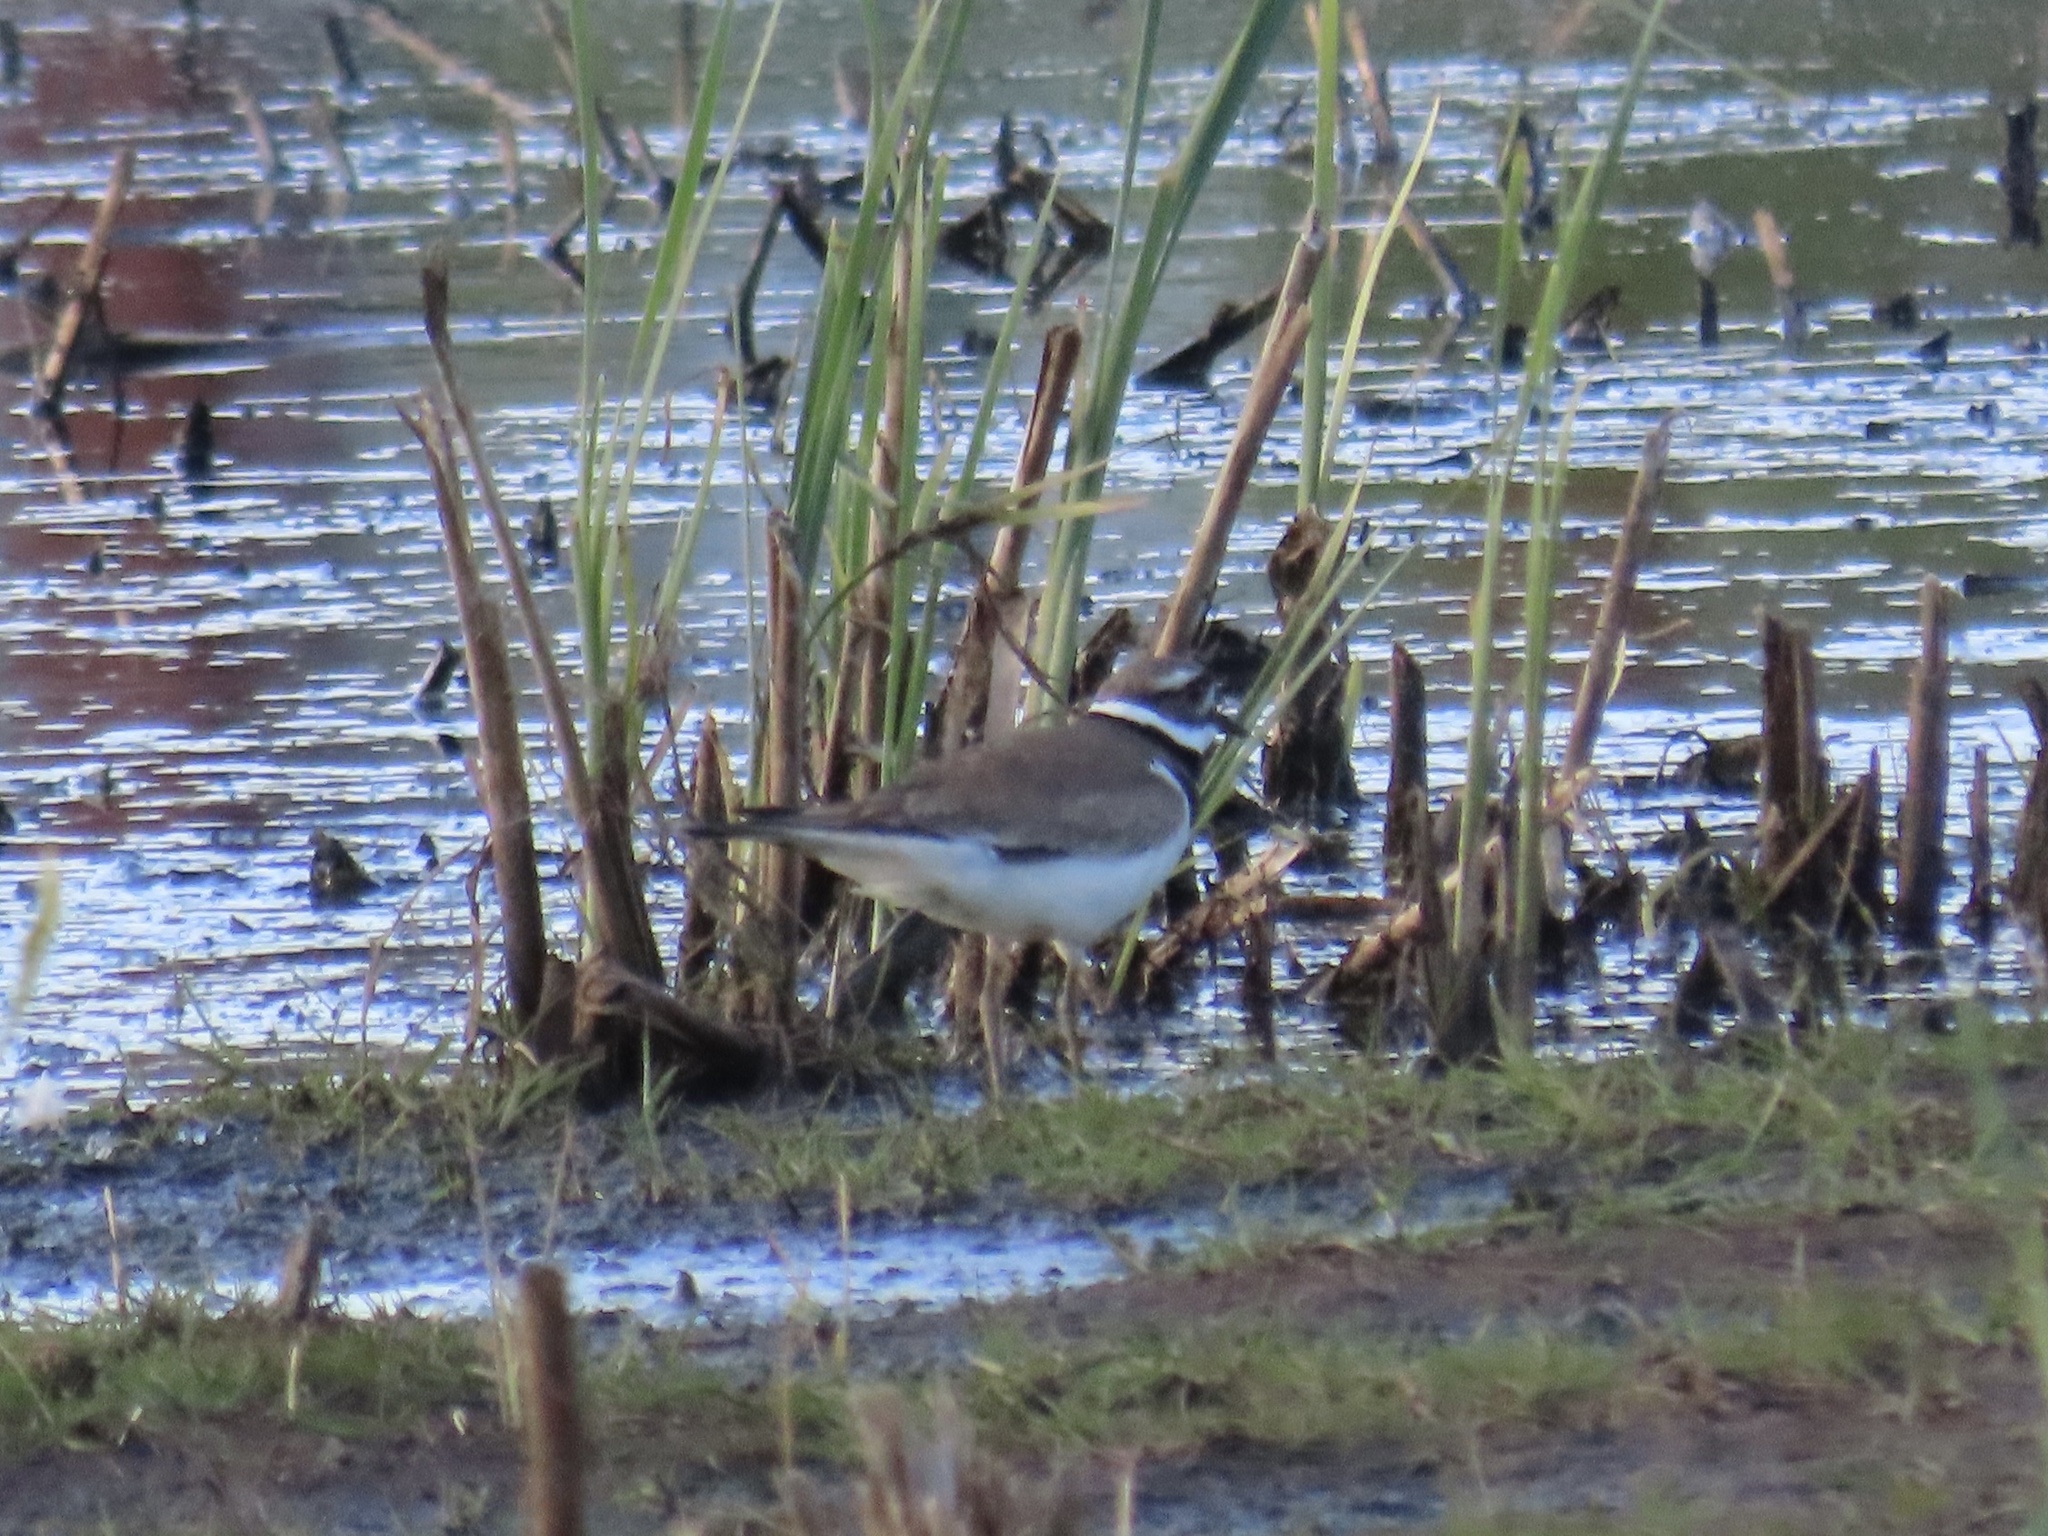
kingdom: Animalia
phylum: Chordata
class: Aves
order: Charadriiformes
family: Charadriidae
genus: Charadrius
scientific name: Charadrius vociferus
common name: Killdeer
